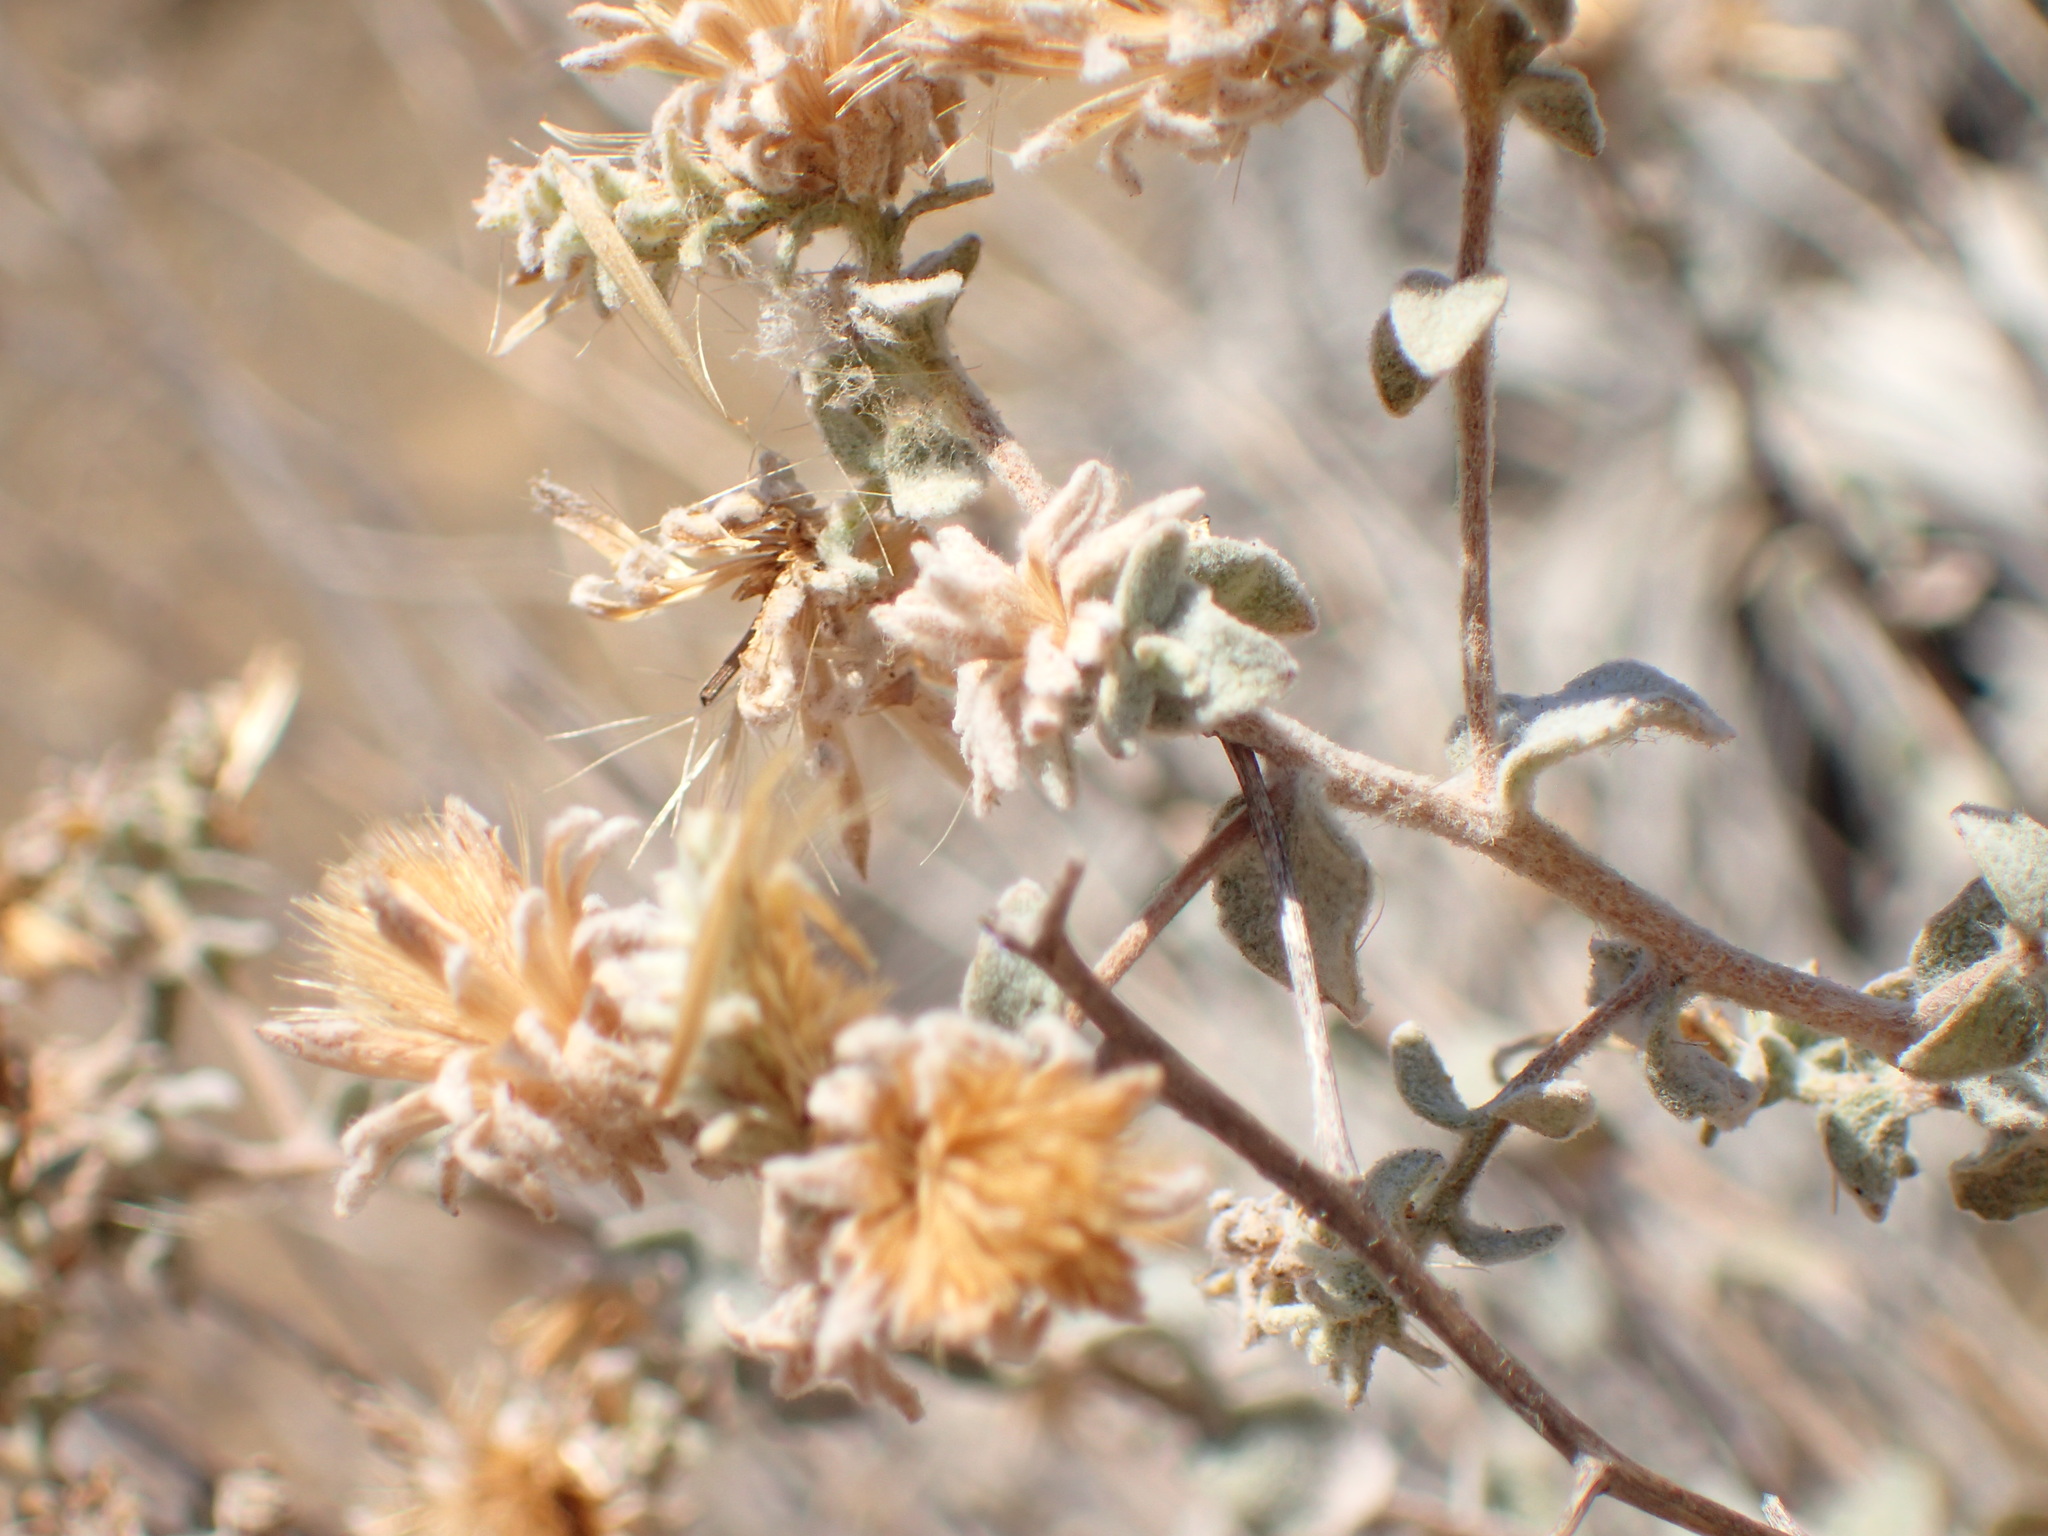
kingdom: Plantae
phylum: Tracheophyta
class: Magnoliopsida
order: Asterales
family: Asteraceae
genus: Brickellia
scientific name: Brickellia nevinii
